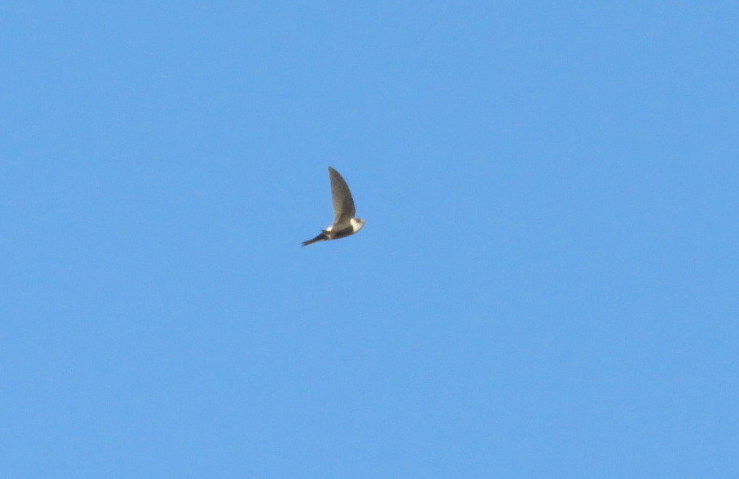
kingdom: Animalia
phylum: Chordata
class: Aves
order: Apodiformes
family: Apodidae
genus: Aeronautes
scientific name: Aeronautes andecolus
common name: Andean swift
